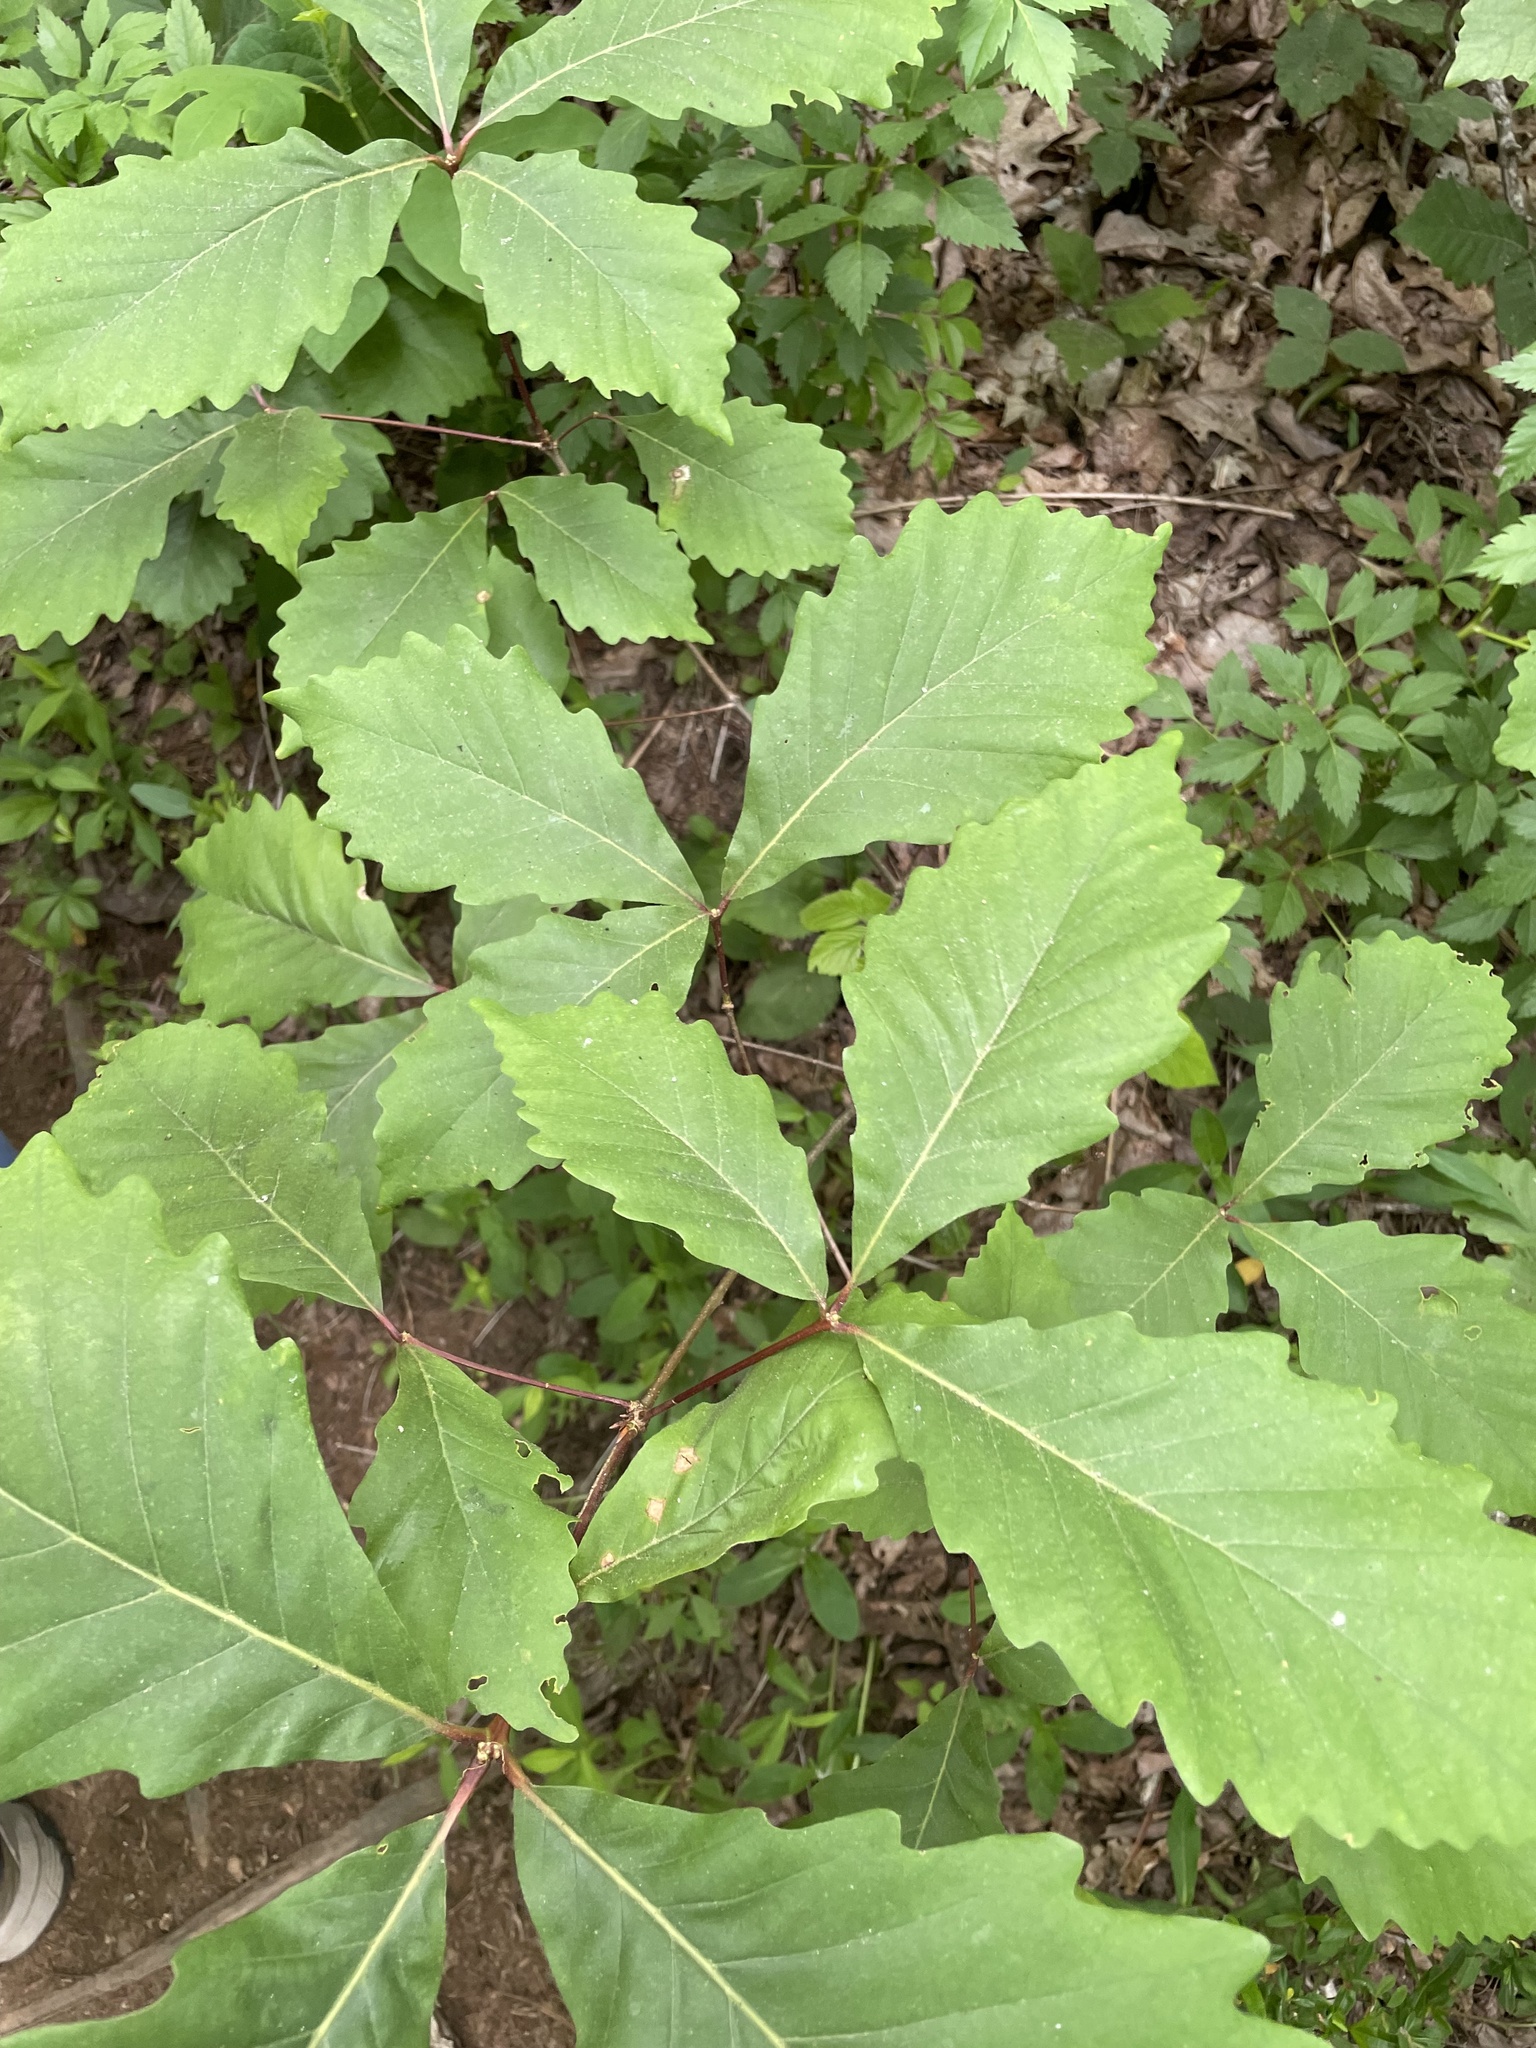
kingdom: Plantae
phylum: Tracheophyta
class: Magnoliopsida
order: Fagales
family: Fagaceae
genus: Quercus
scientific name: Quercus montana
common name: Chestnut oak
